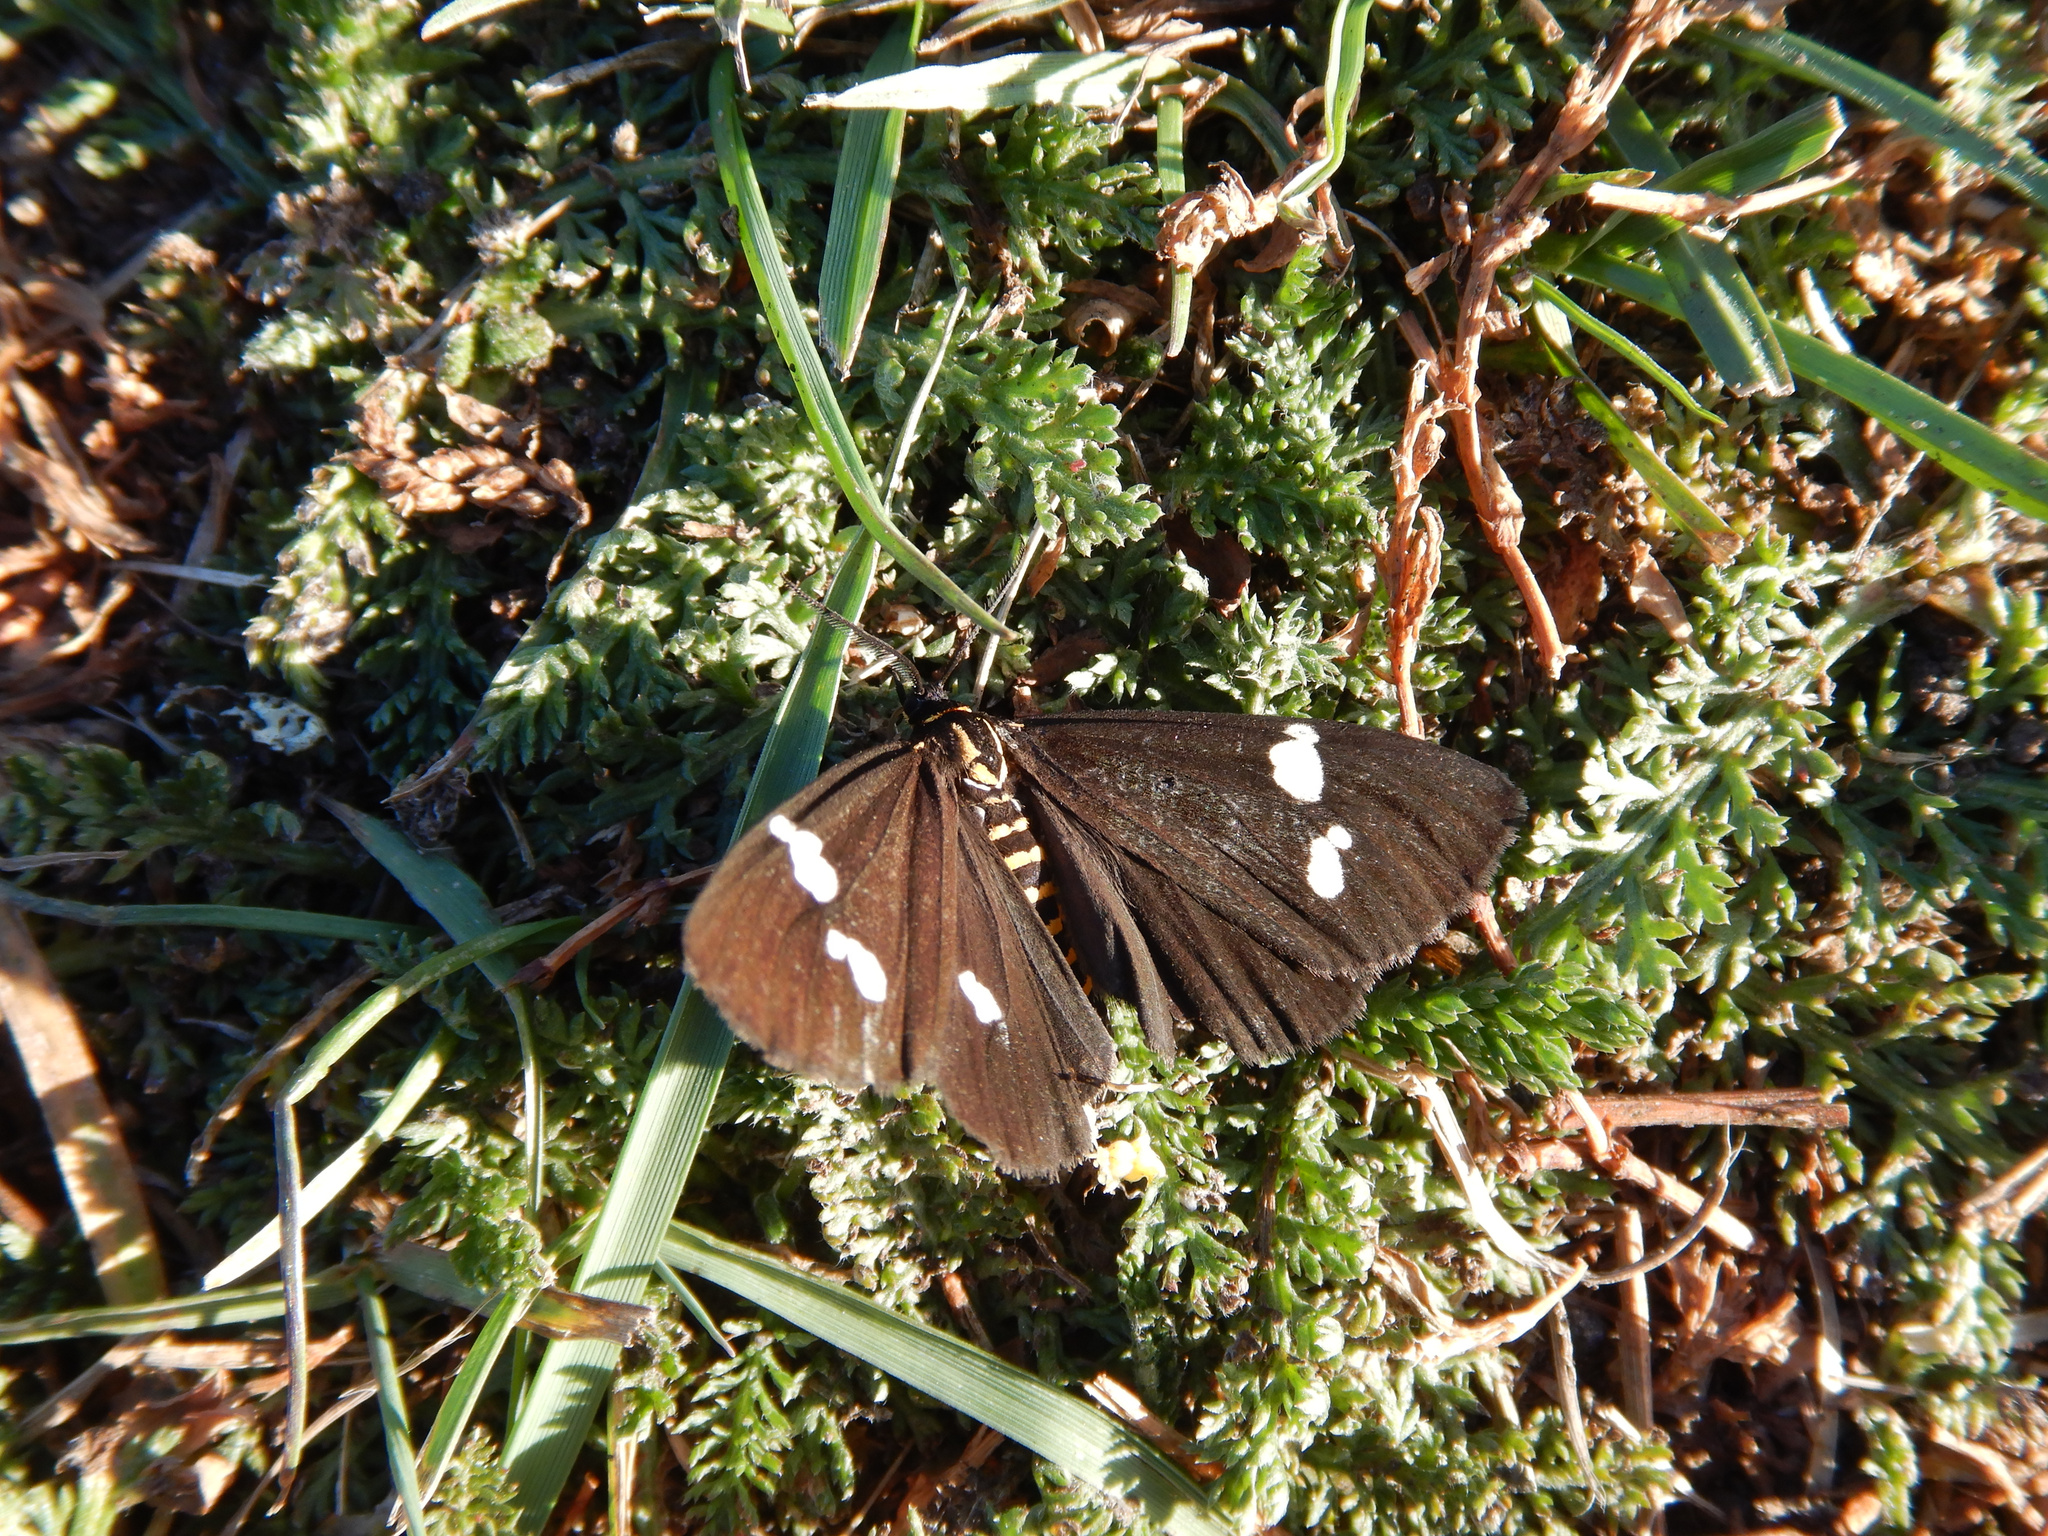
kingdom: Animalia
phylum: Arthropoda
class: Insecta
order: Lepidoptera
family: Erebidae
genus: Nyctemera
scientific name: Nyctemera annulatum
